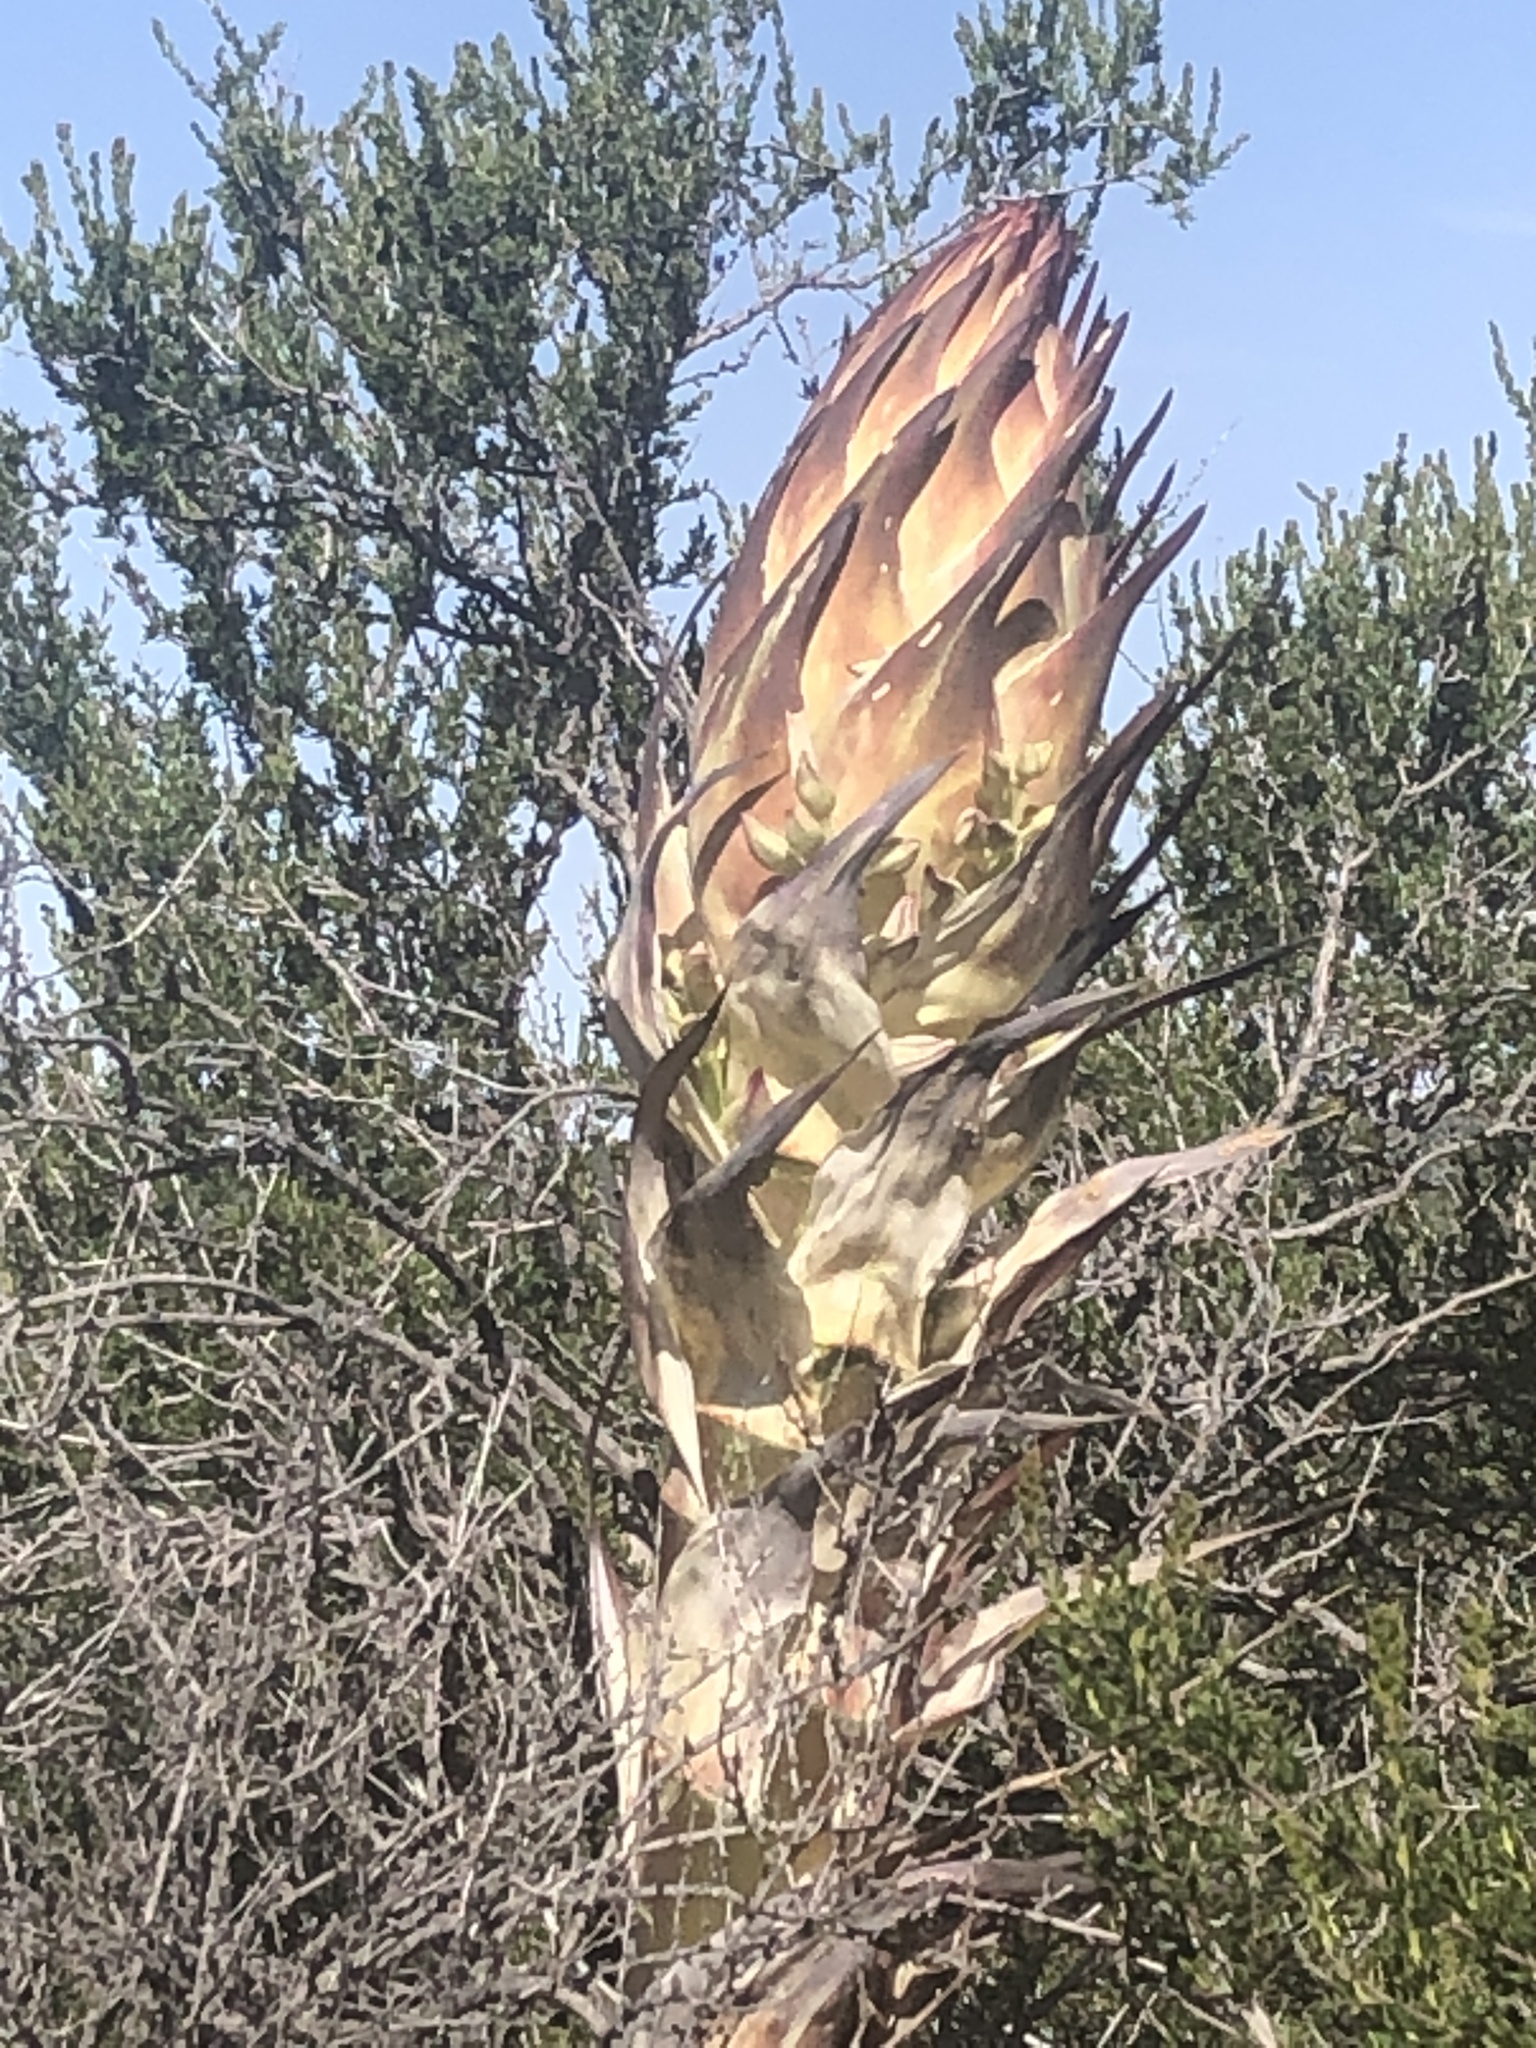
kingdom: Plantae
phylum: Tracheophyta
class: Liliopsida
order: Asparagales
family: Asparagaceae
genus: Hesperoyucca
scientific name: Hesperoyucca whipplei
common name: Our lord's-candle
